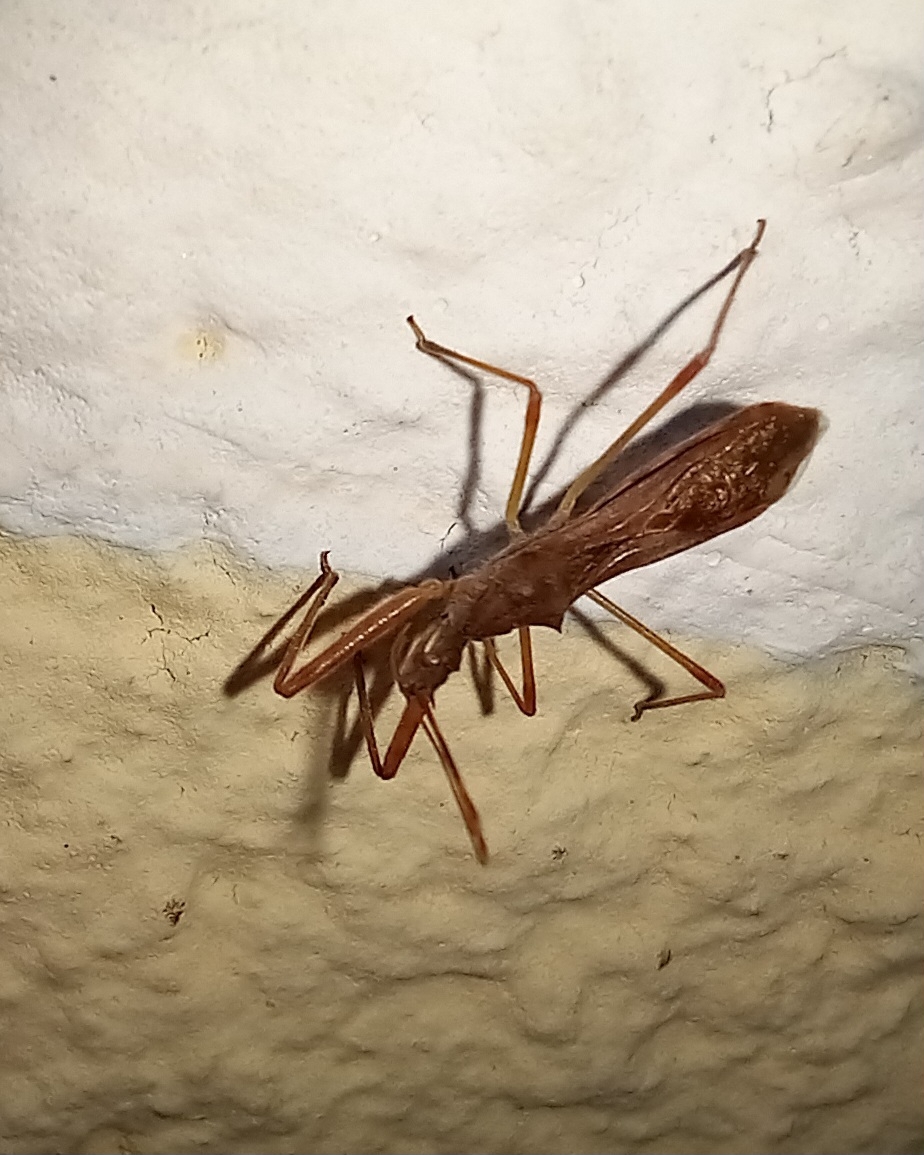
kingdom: Animalia
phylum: Arthropoda
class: Insecta
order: Hemiptera
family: Reduviidae
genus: Nagusta
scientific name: Nagusta goedelii
